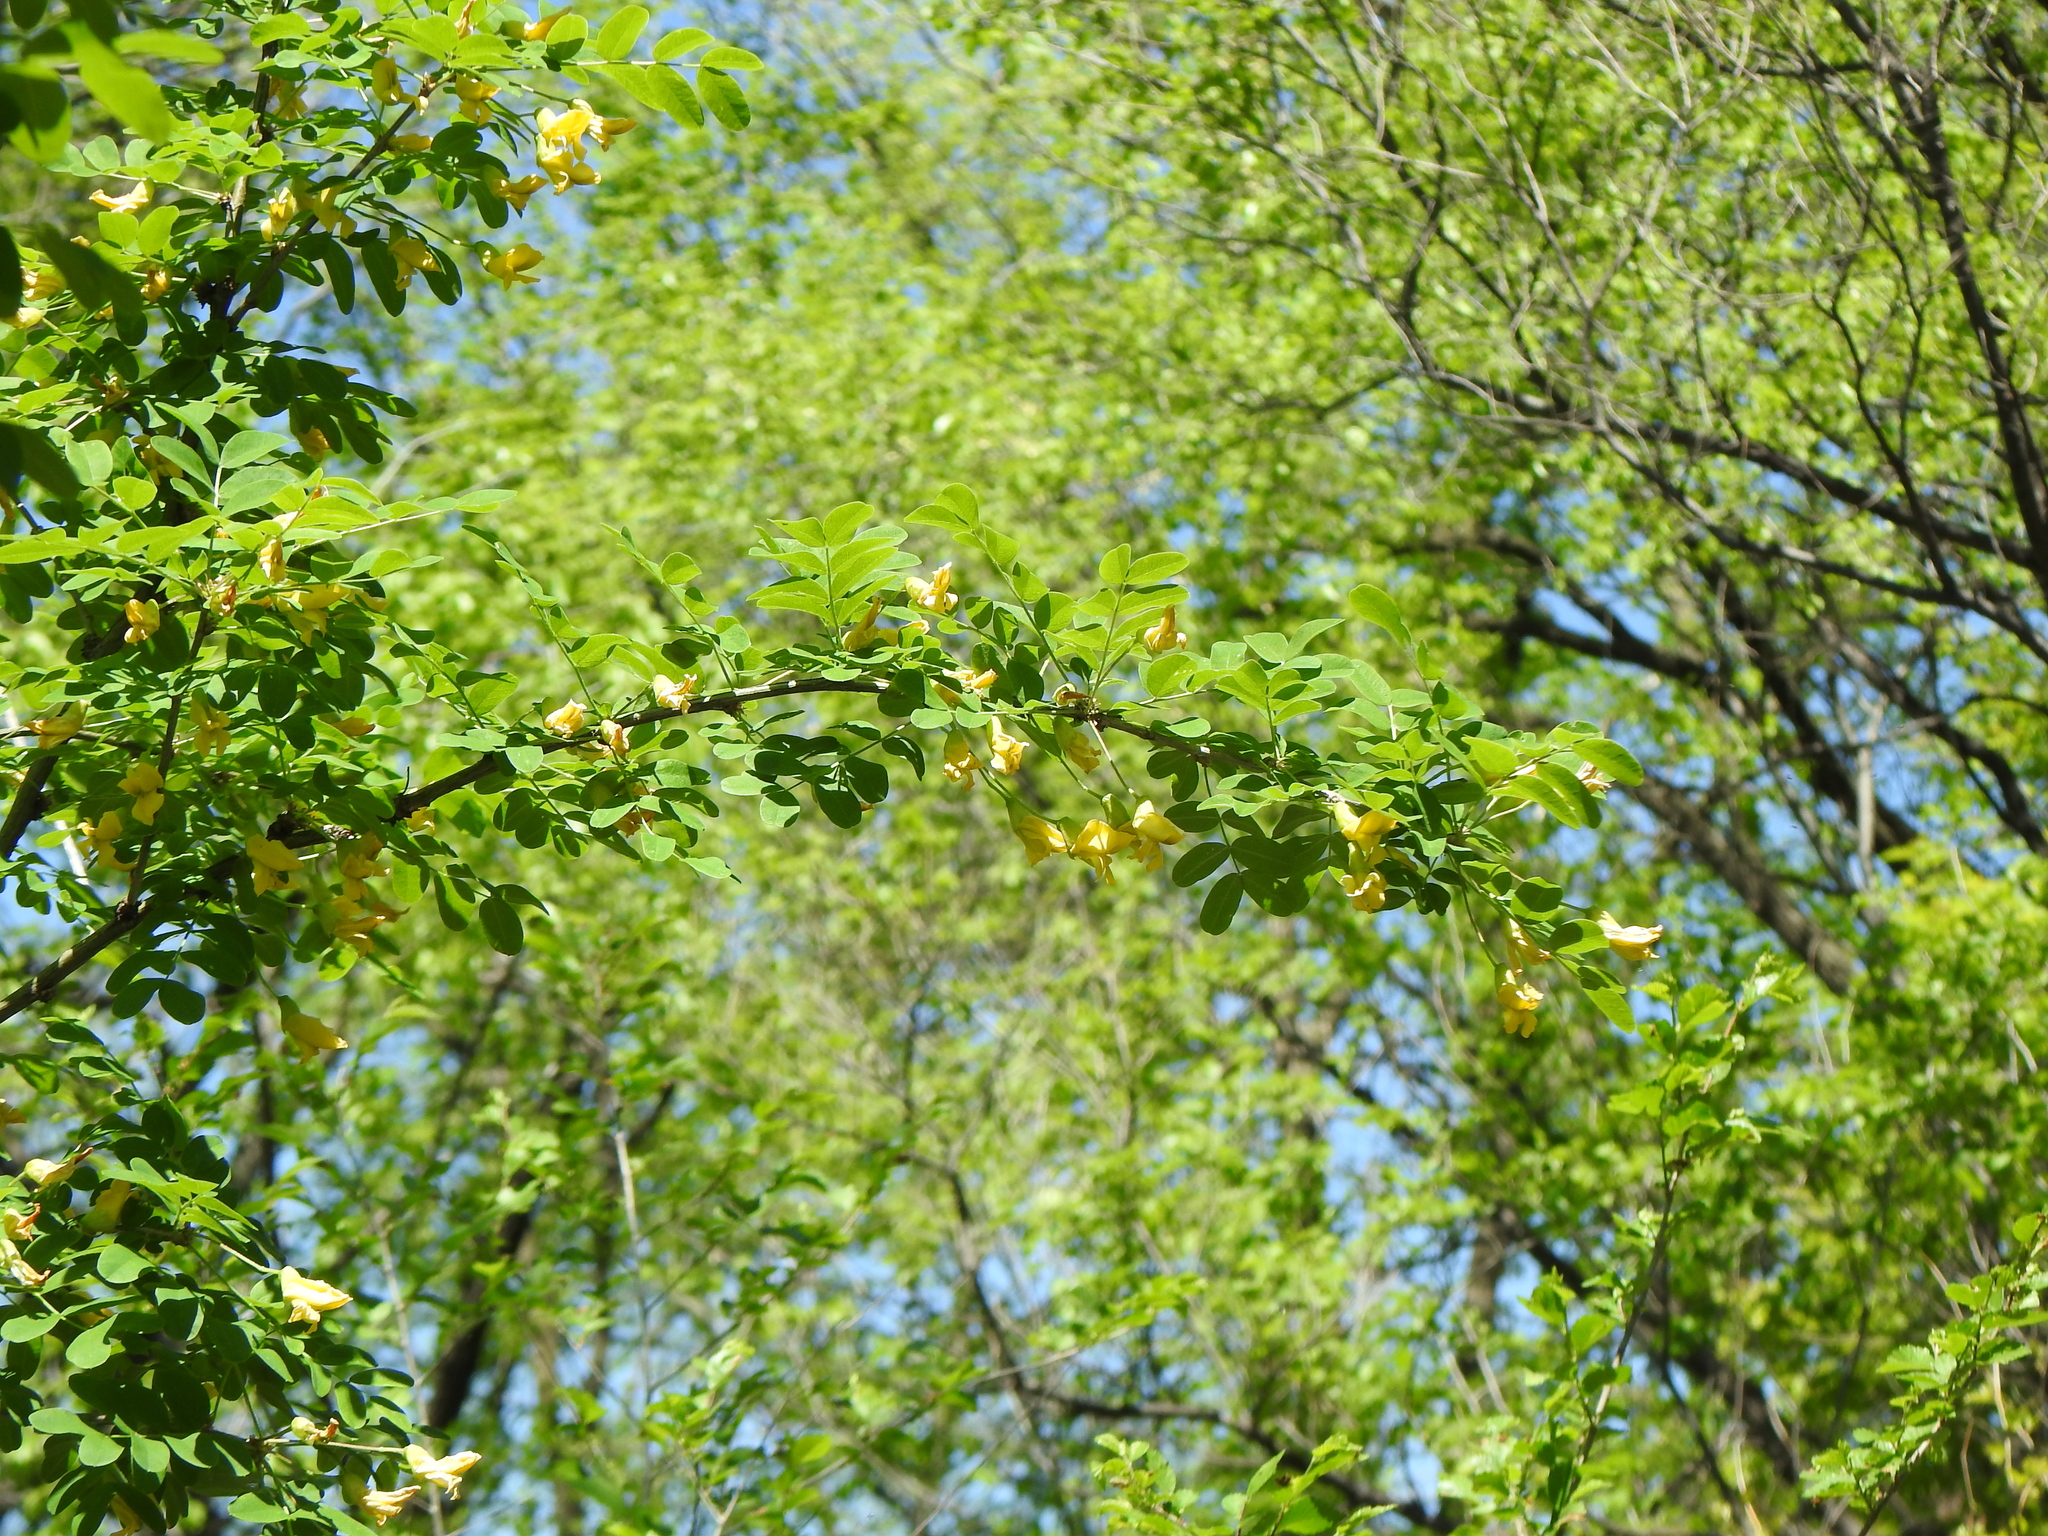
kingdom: Plantae
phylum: Tracheophyta
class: Magnoliopsida
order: Fabales
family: Fabaceae
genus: Caragana
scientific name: Caragana arborescens
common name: Siberian peashrub
